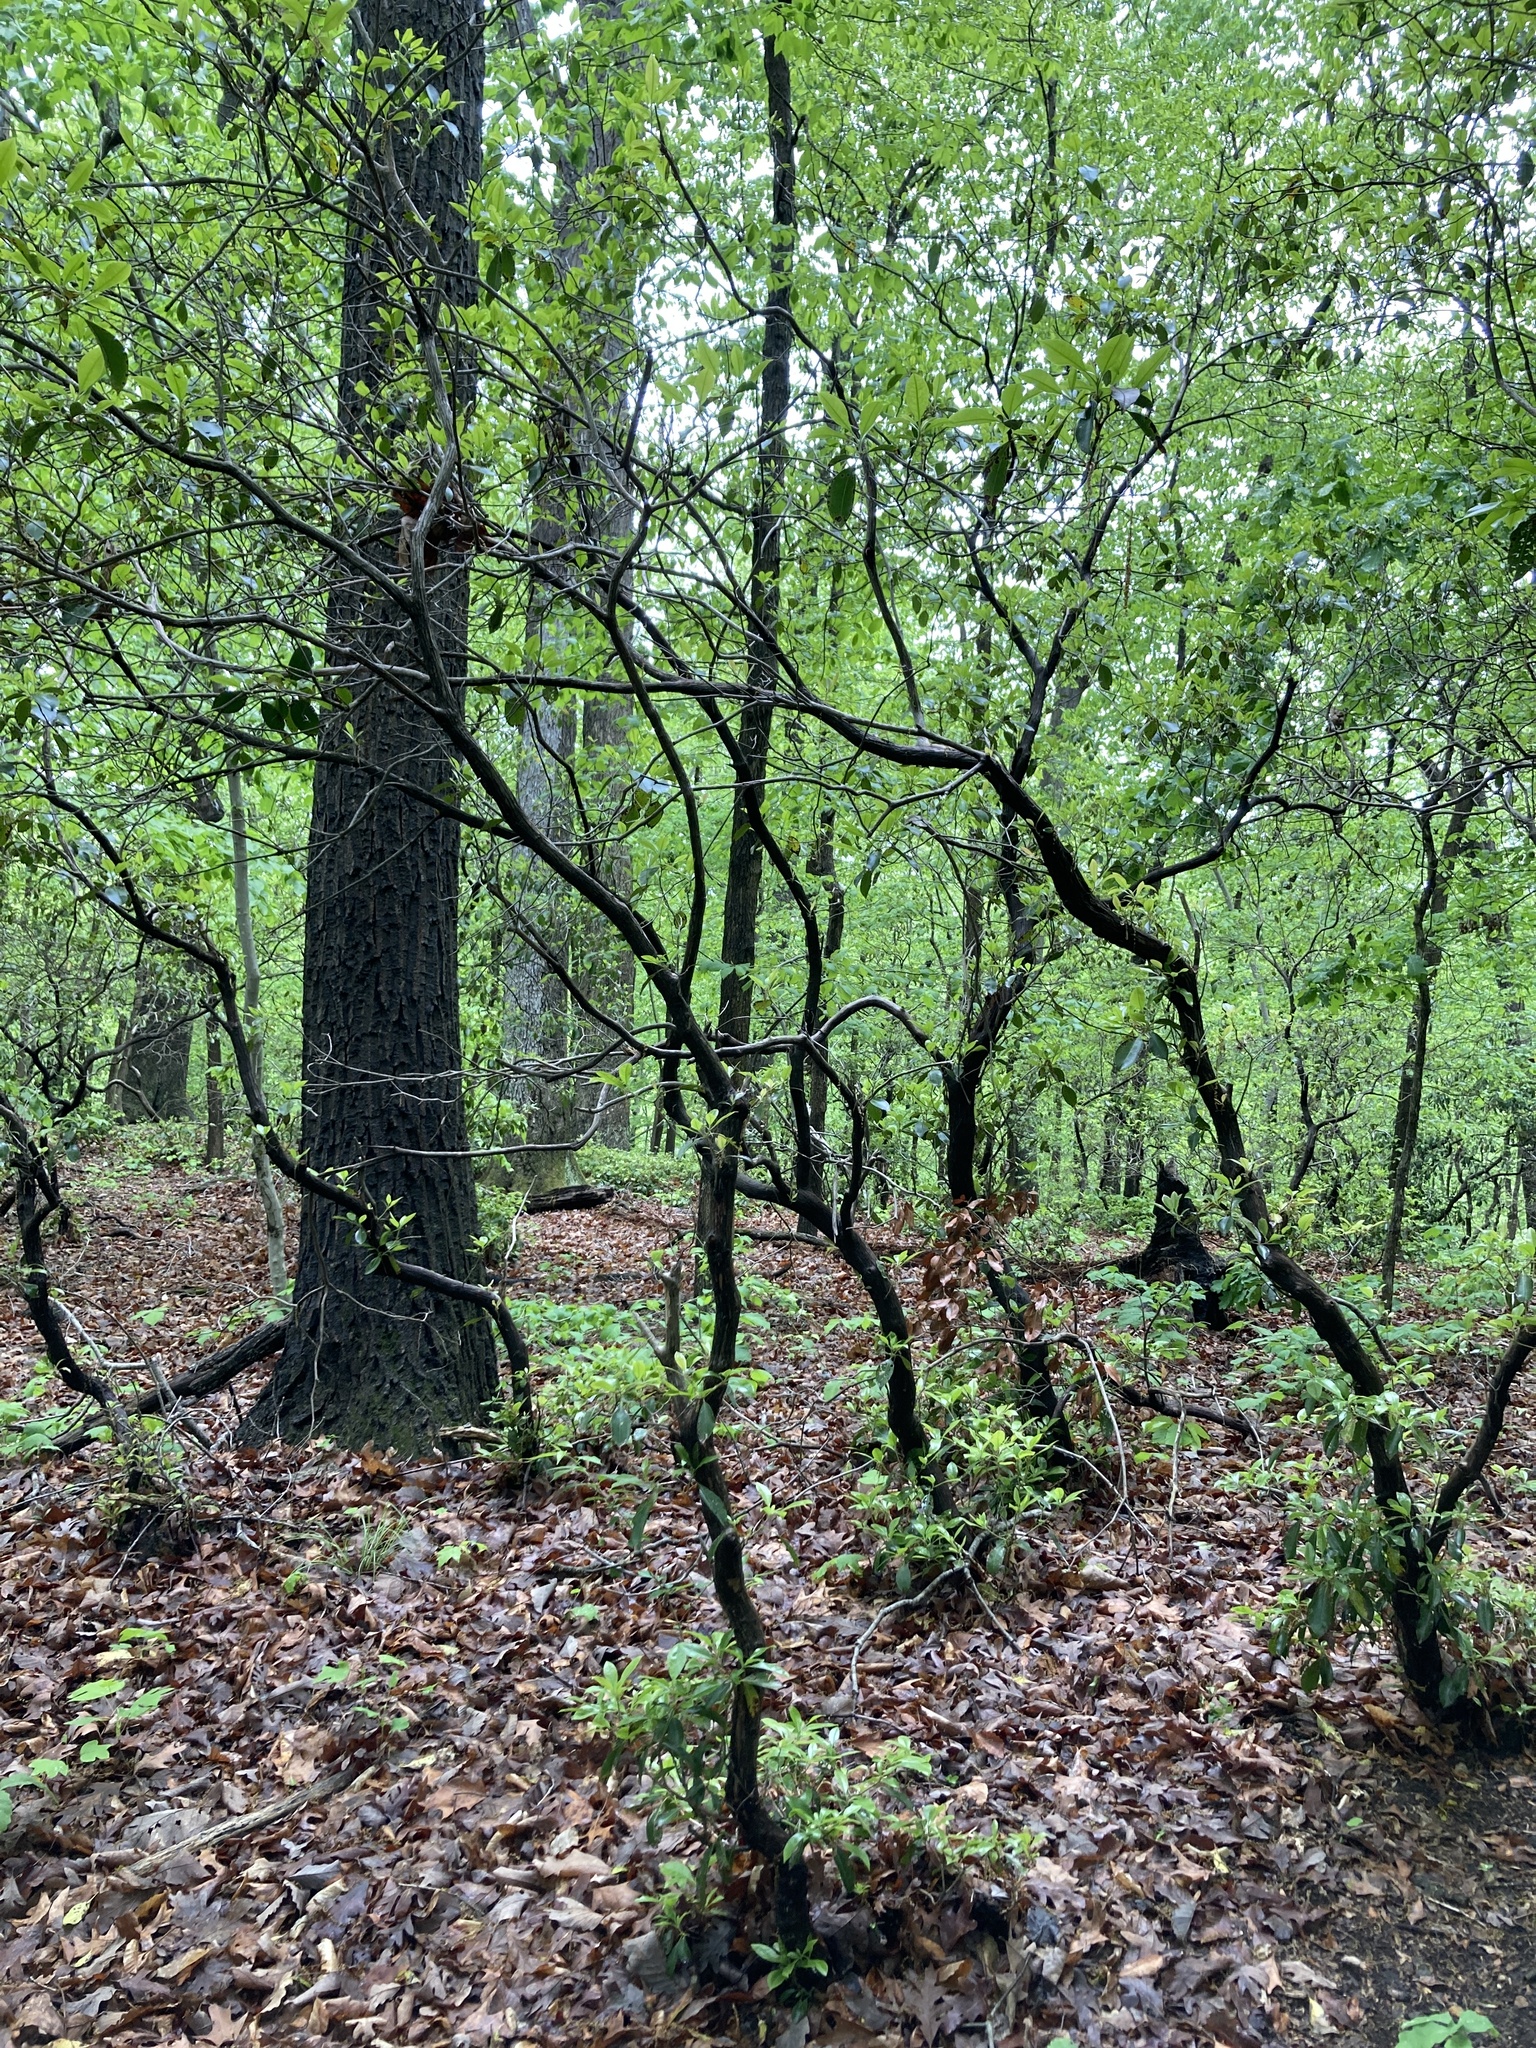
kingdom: Plantae
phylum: Tracheophyta
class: Magnoliopsida
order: Ericales
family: Ericaceae
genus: Kalmia
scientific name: Kalmia latifolia
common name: Mountain-laurel
